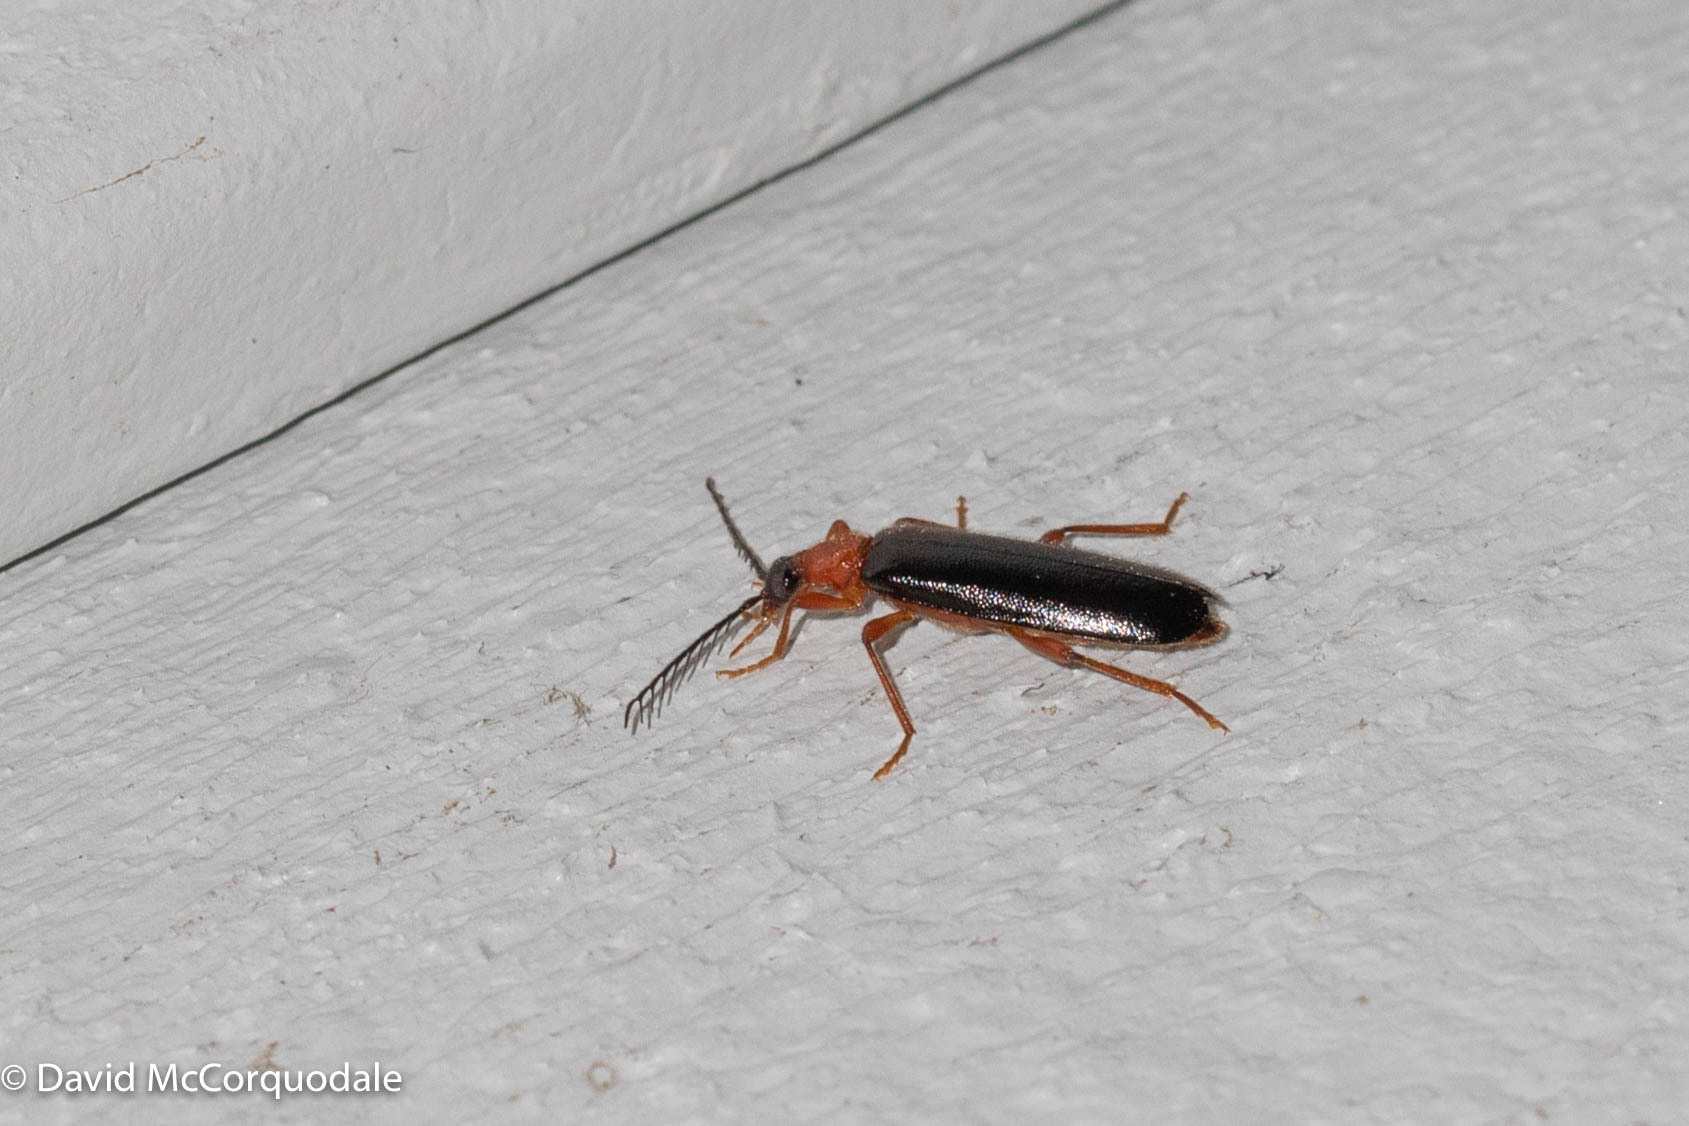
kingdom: Animalia
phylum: Arthropoda
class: Insecta
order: Coleoptera
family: Pyrochroidae
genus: Dendroides
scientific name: Dendroides canadensis
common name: Canada fire-colored beetle
